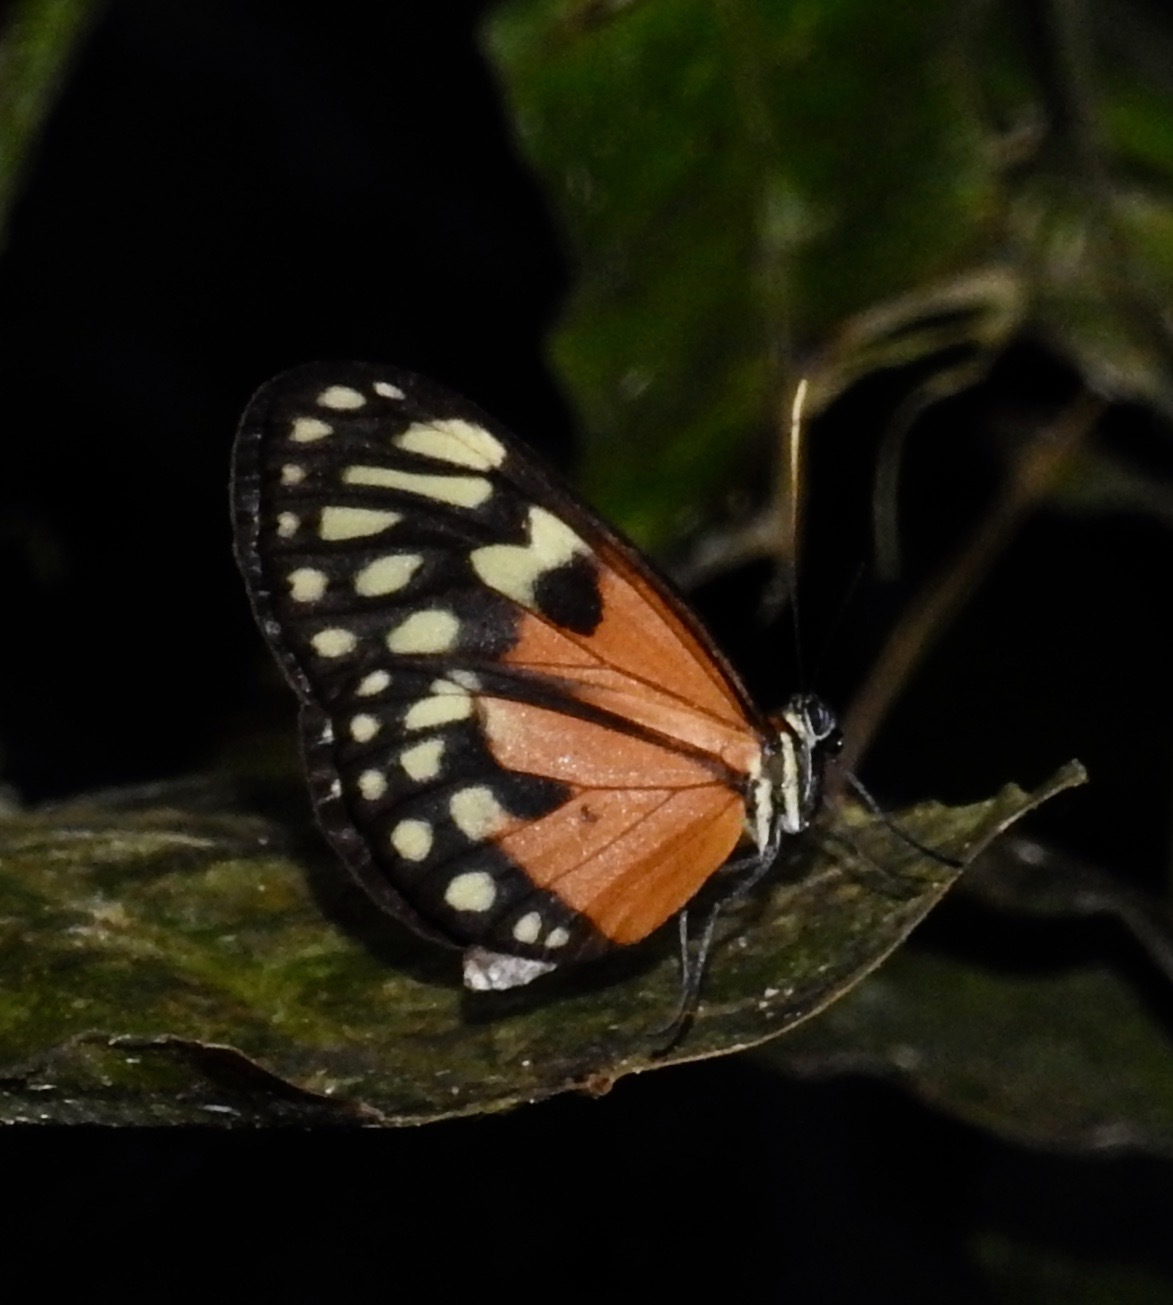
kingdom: Animalia
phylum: Arthropoda
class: Insecta
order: Lepidoptera
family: Nymphalidae
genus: Napeogenes
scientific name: Napeogenes stella
